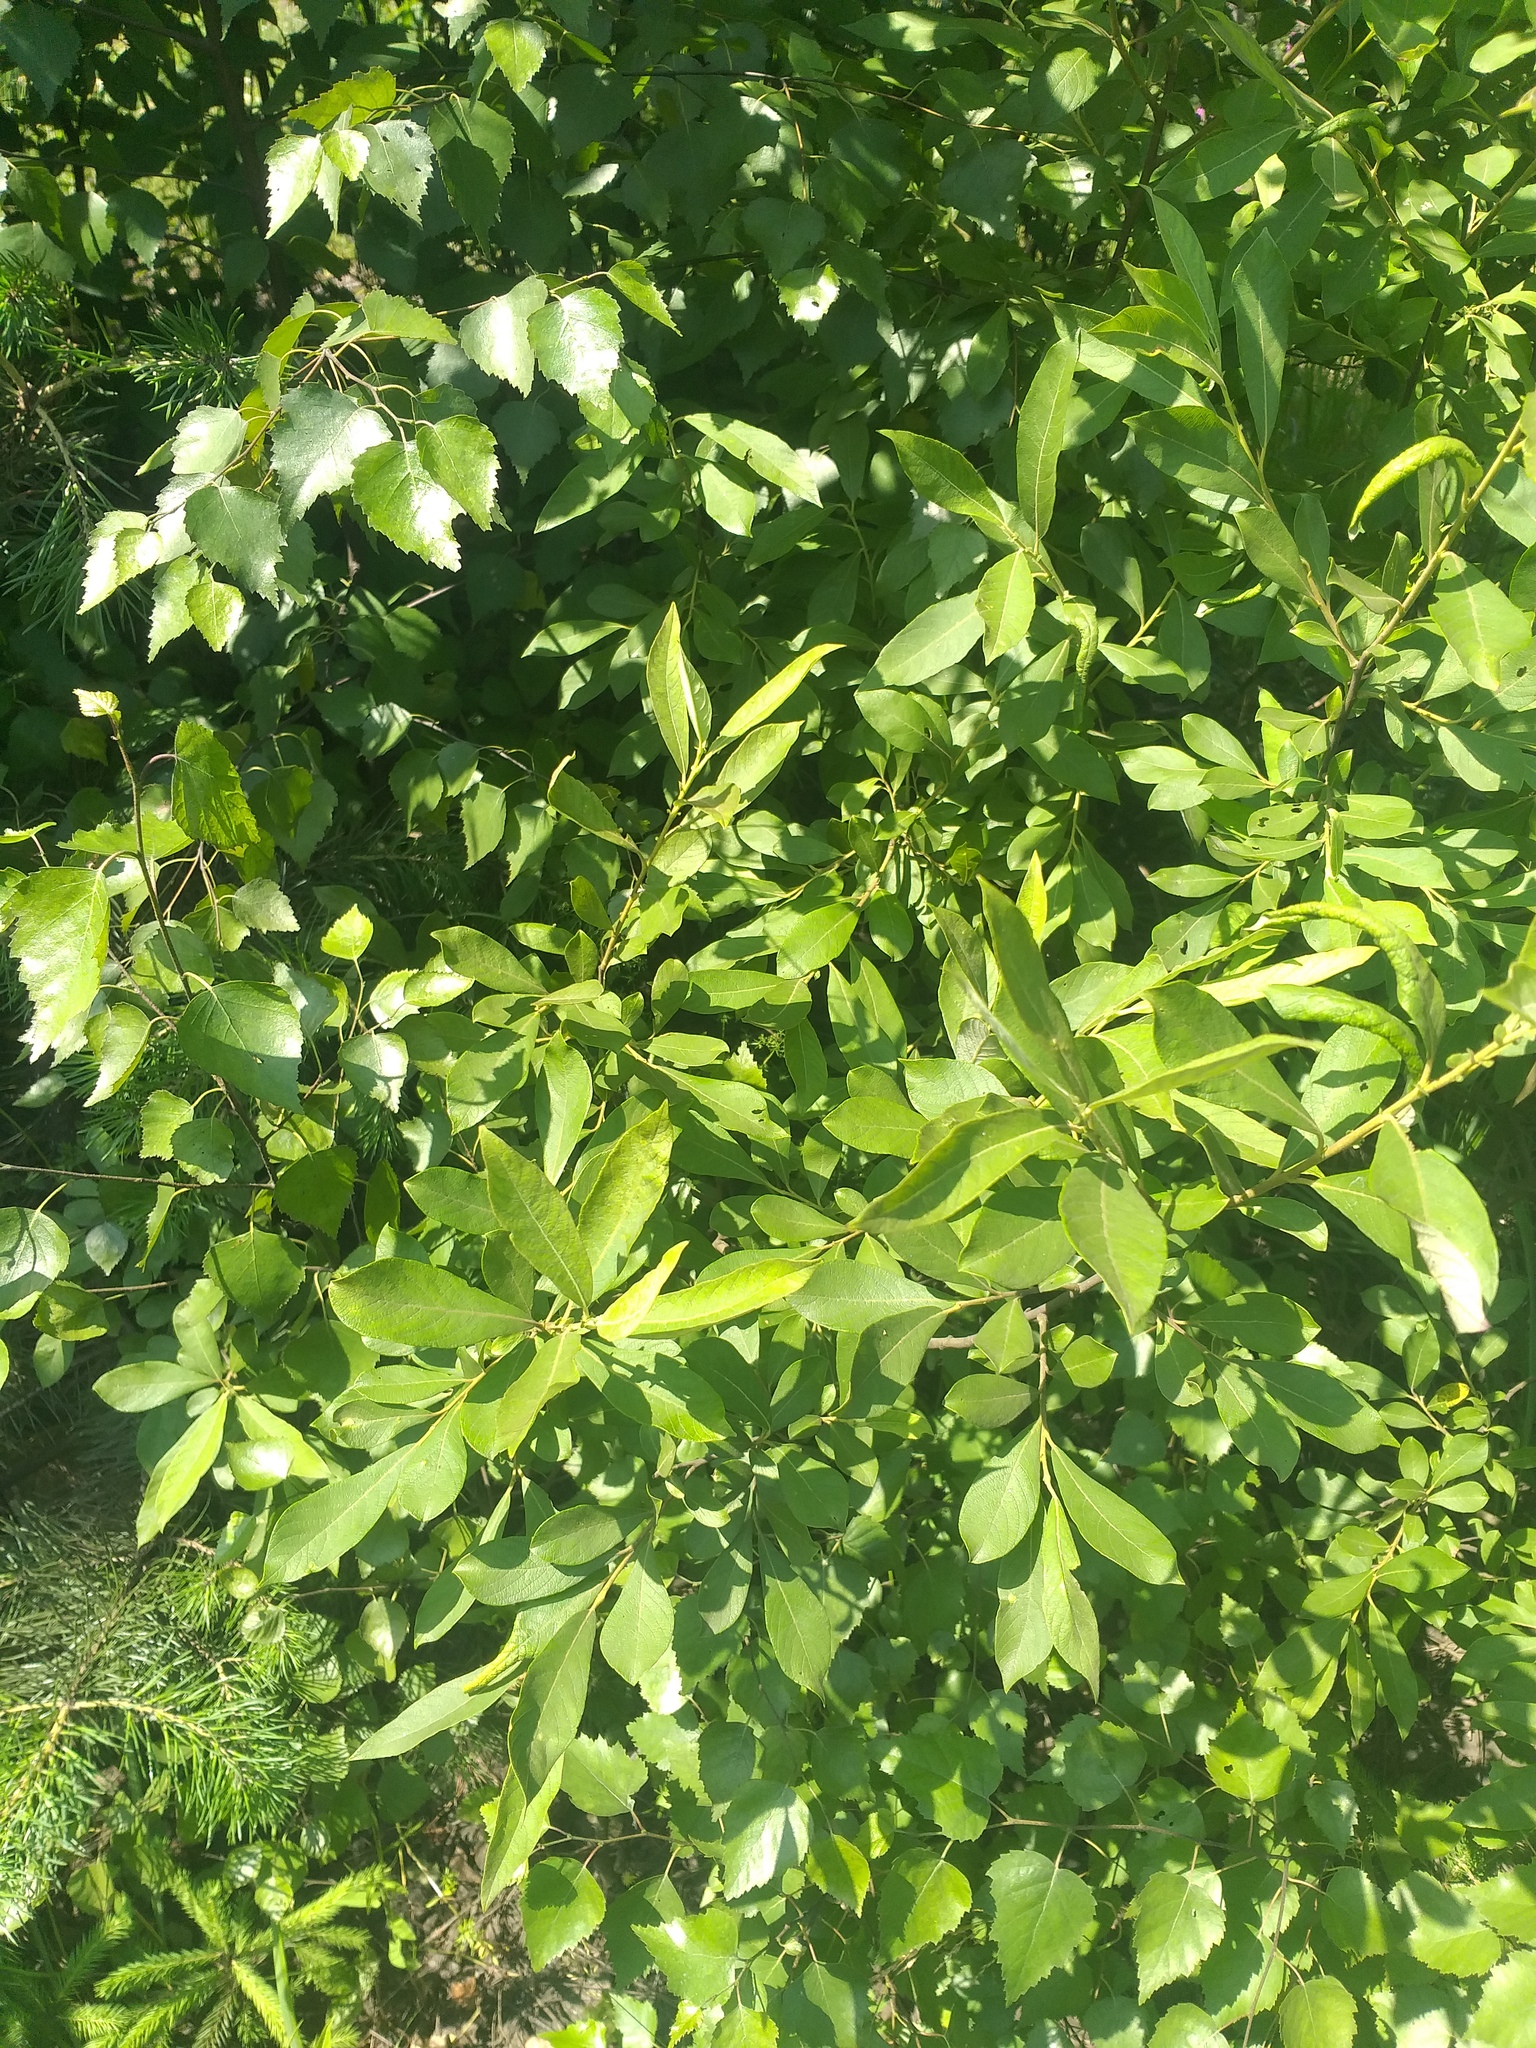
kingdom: Plantae
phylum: Tracheophyta
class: Magnoliopsida
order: Malpighiales
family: Salicaceae
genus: Salix
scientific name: Salix cinerea
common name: Common sallow
